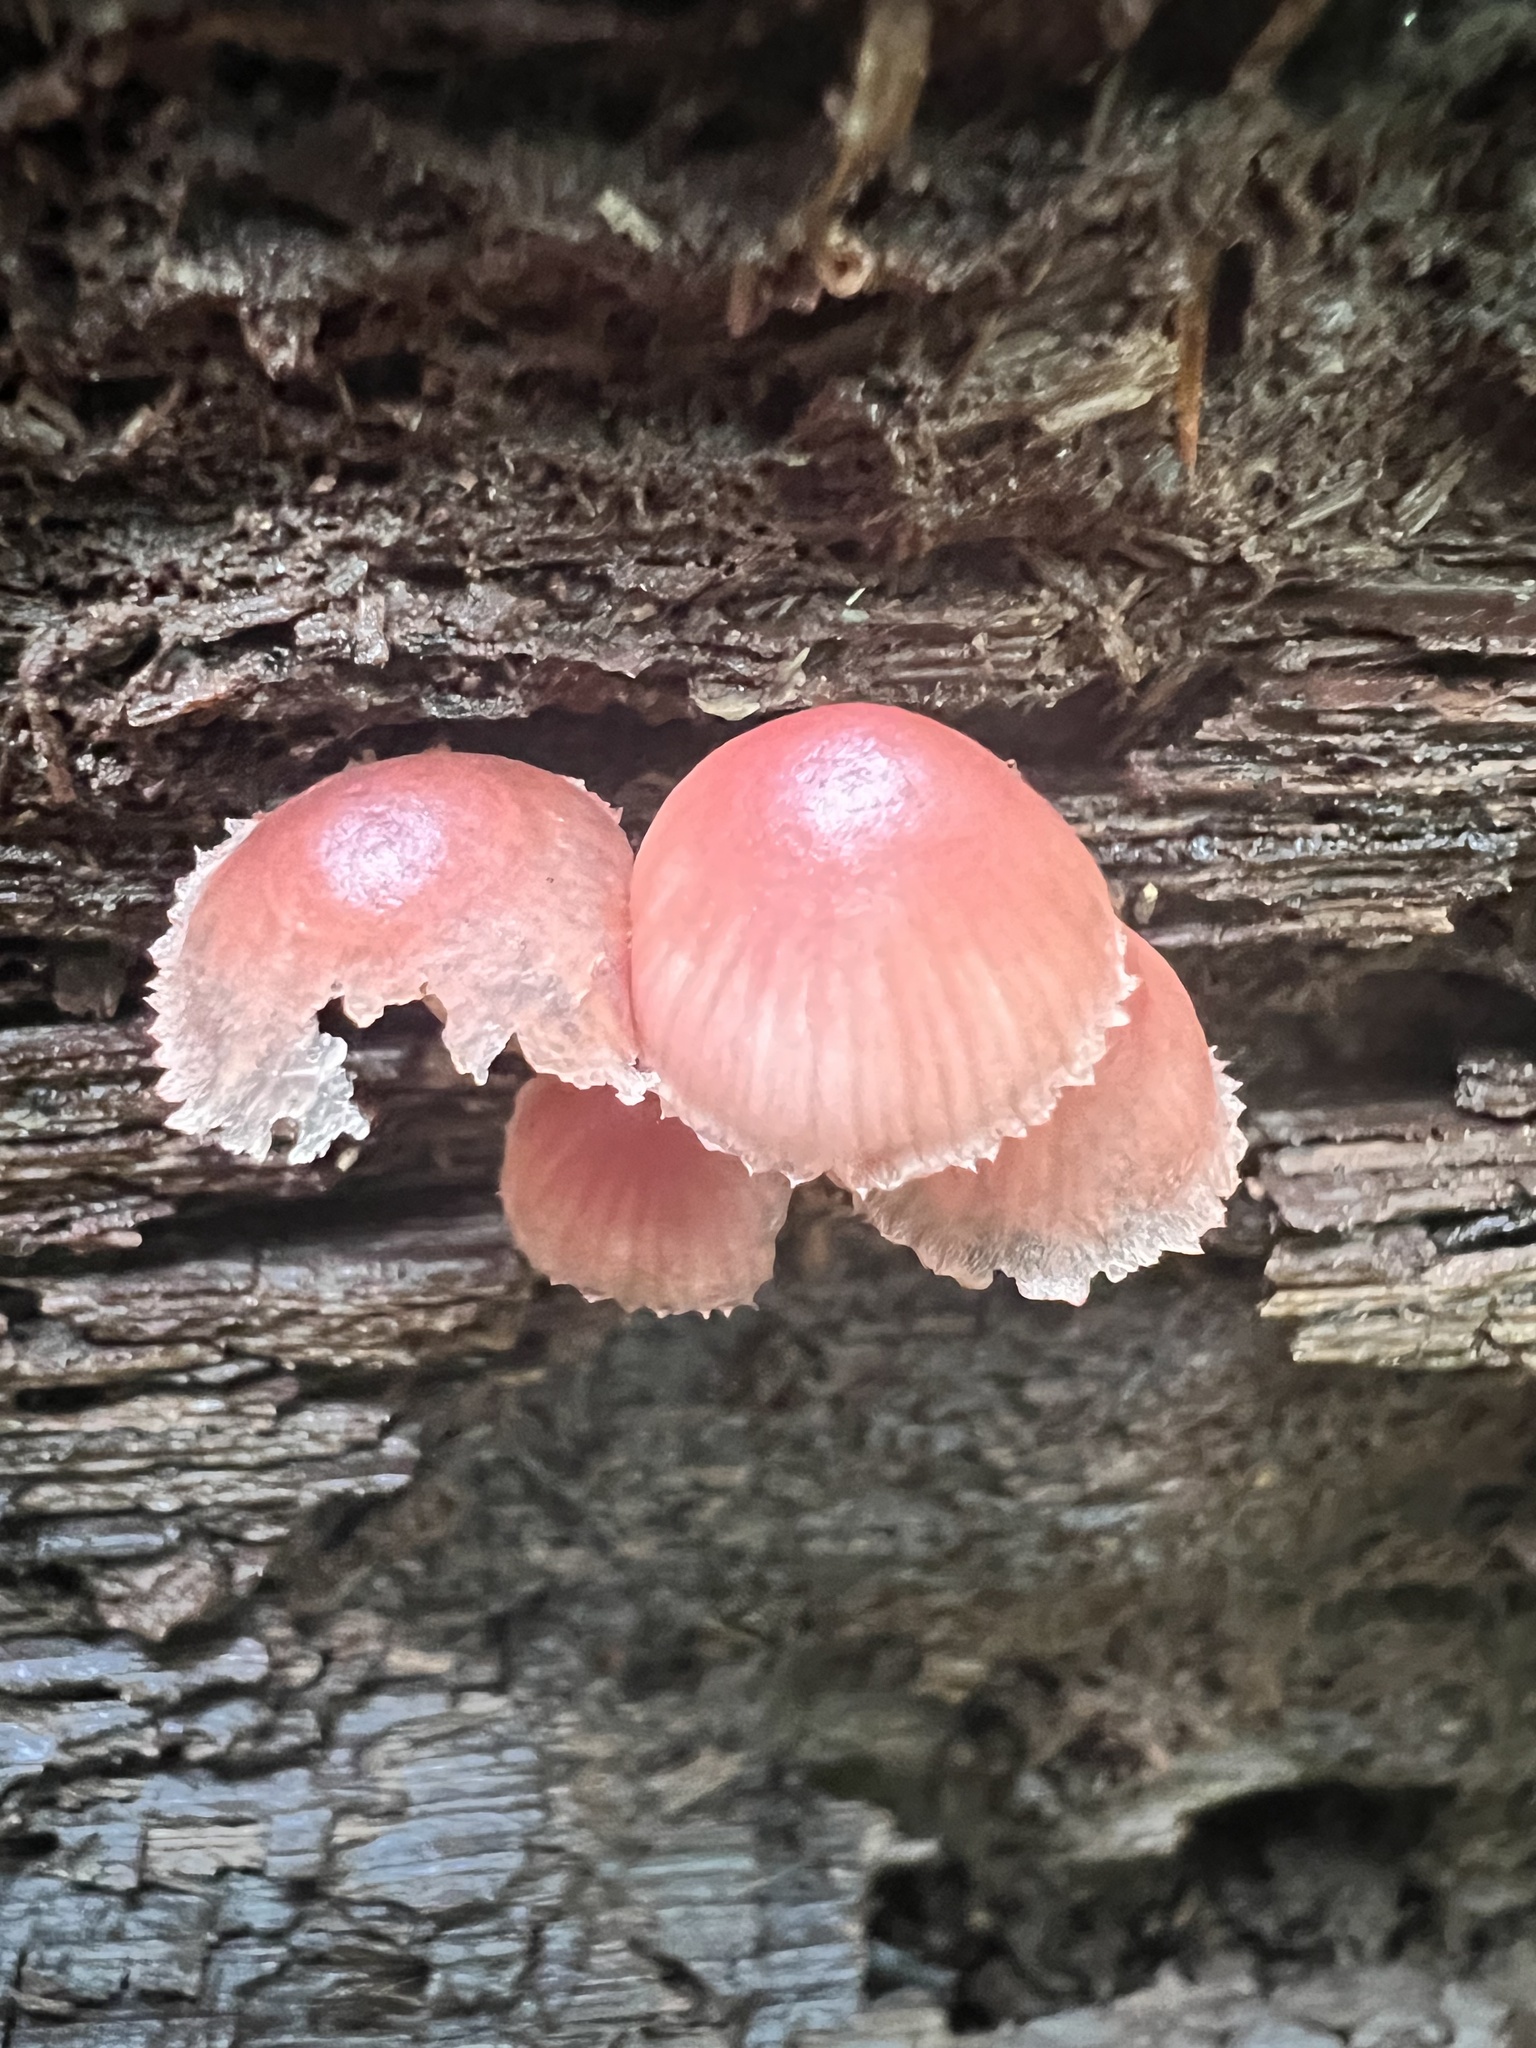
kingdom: Fungi
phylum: Basidiomycota
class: Agaricomycetes
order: Agaricales
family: Mycenaceae
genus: Mycena
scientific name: Mycena haematopus
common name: Burgundydrop bonnet
